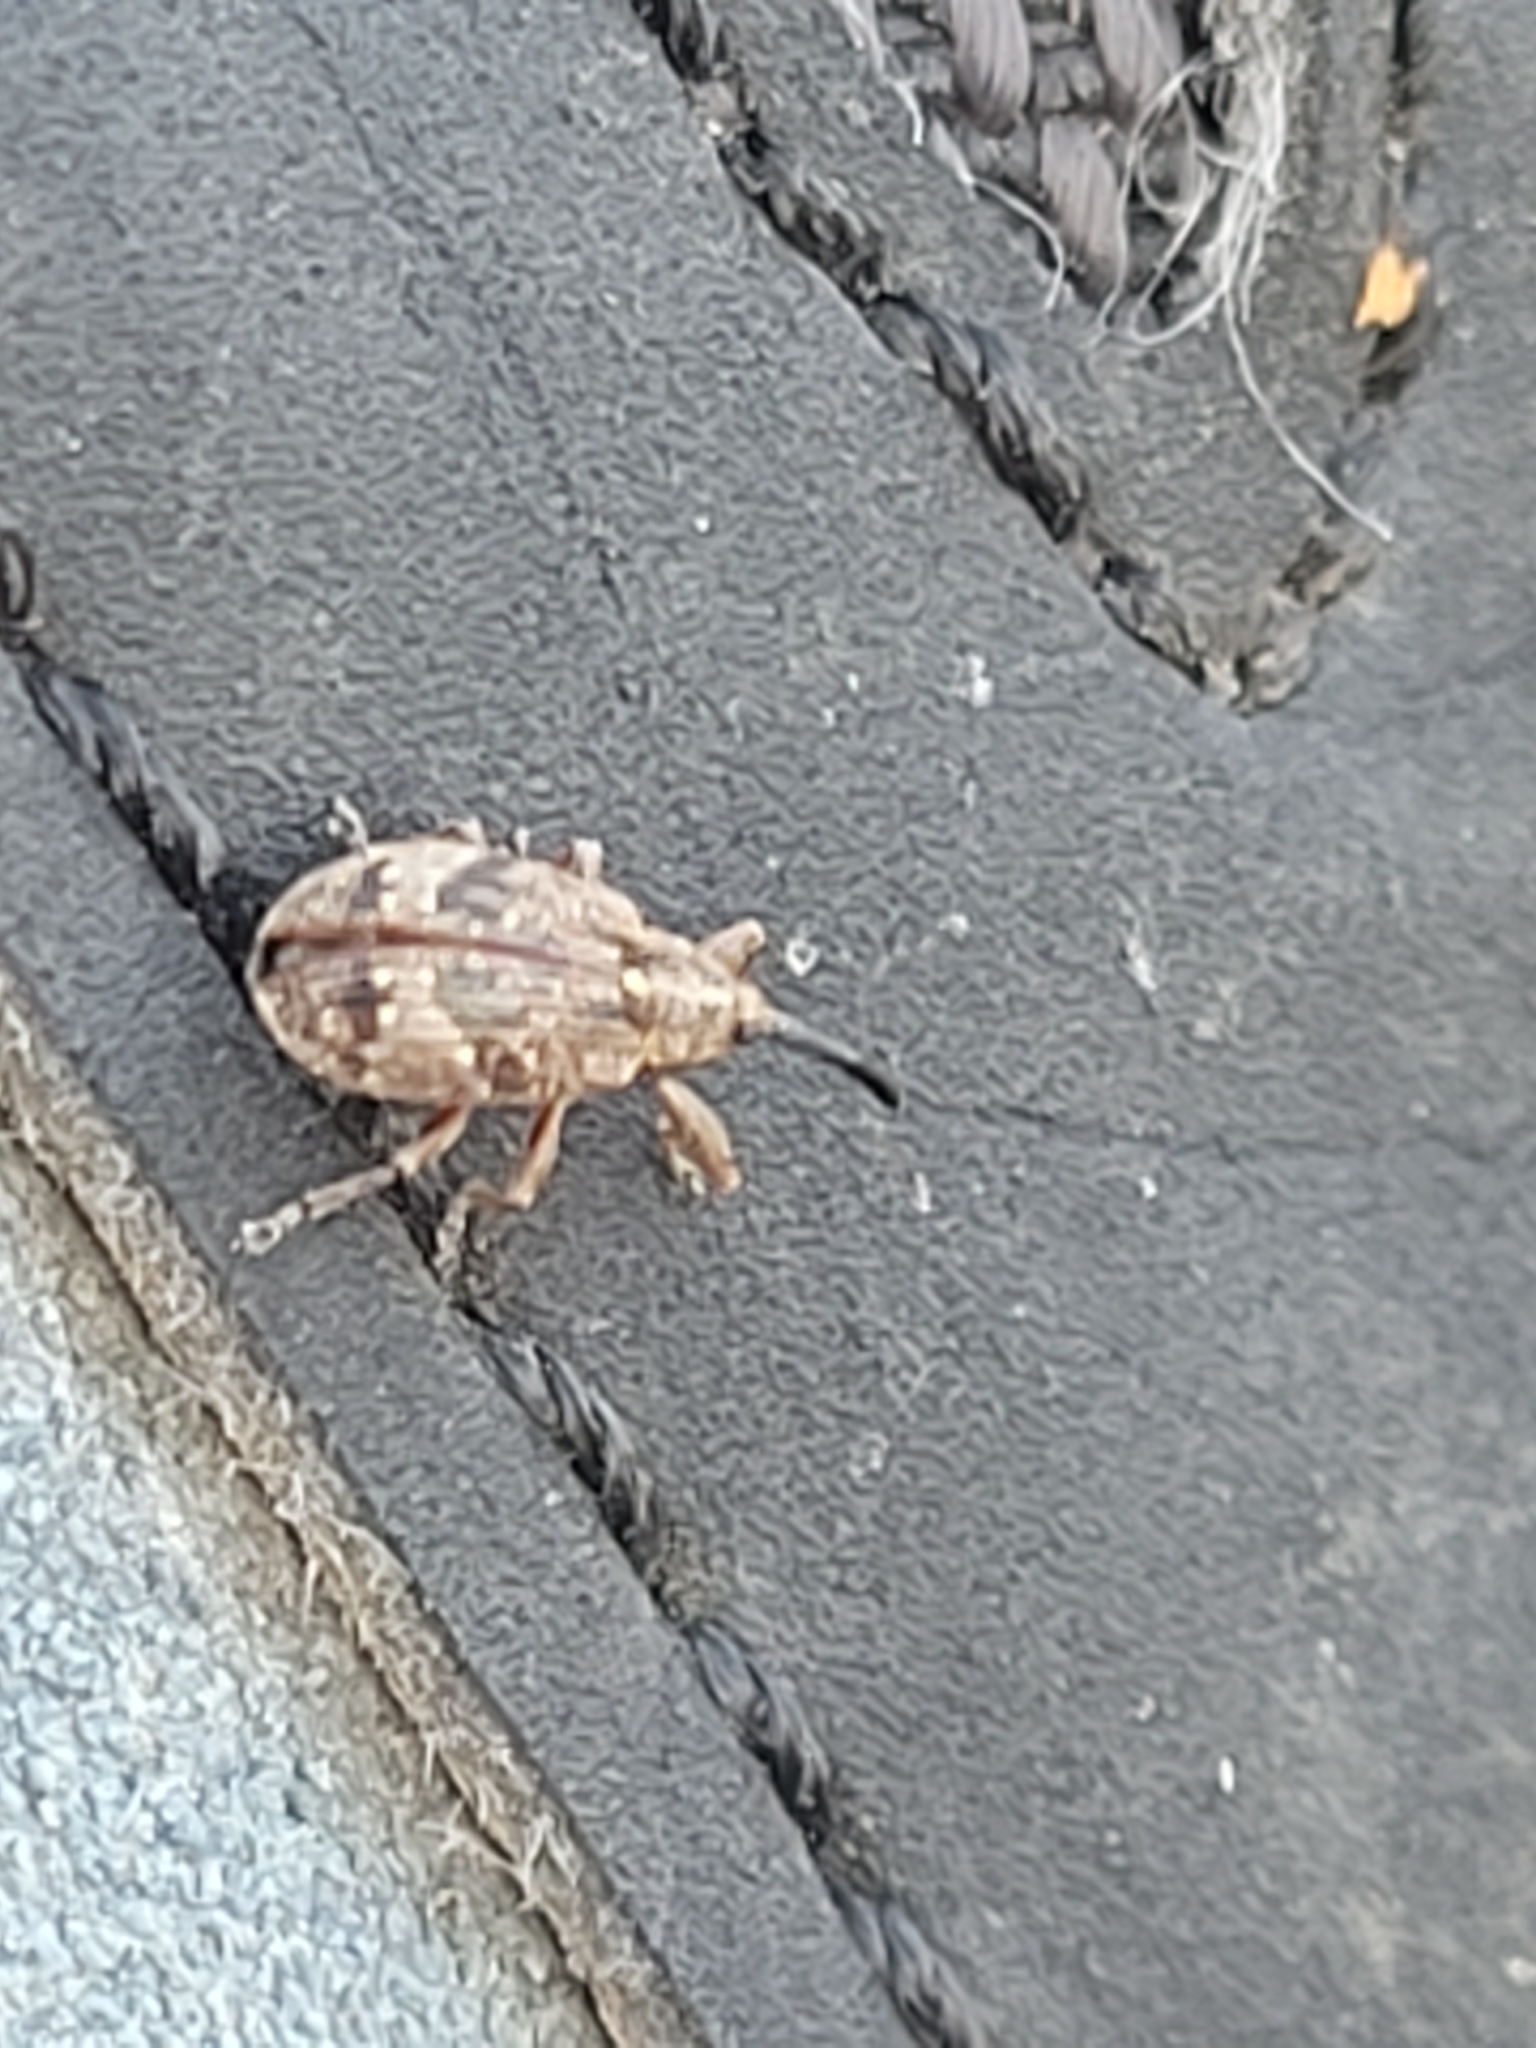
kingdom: Animalia
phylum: Arthropoda
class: Insecta
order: Coleoptera
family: Curculionidae
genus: Anthonomus
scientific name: Anthonomus pomorum
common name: Apple-blossom weevil
